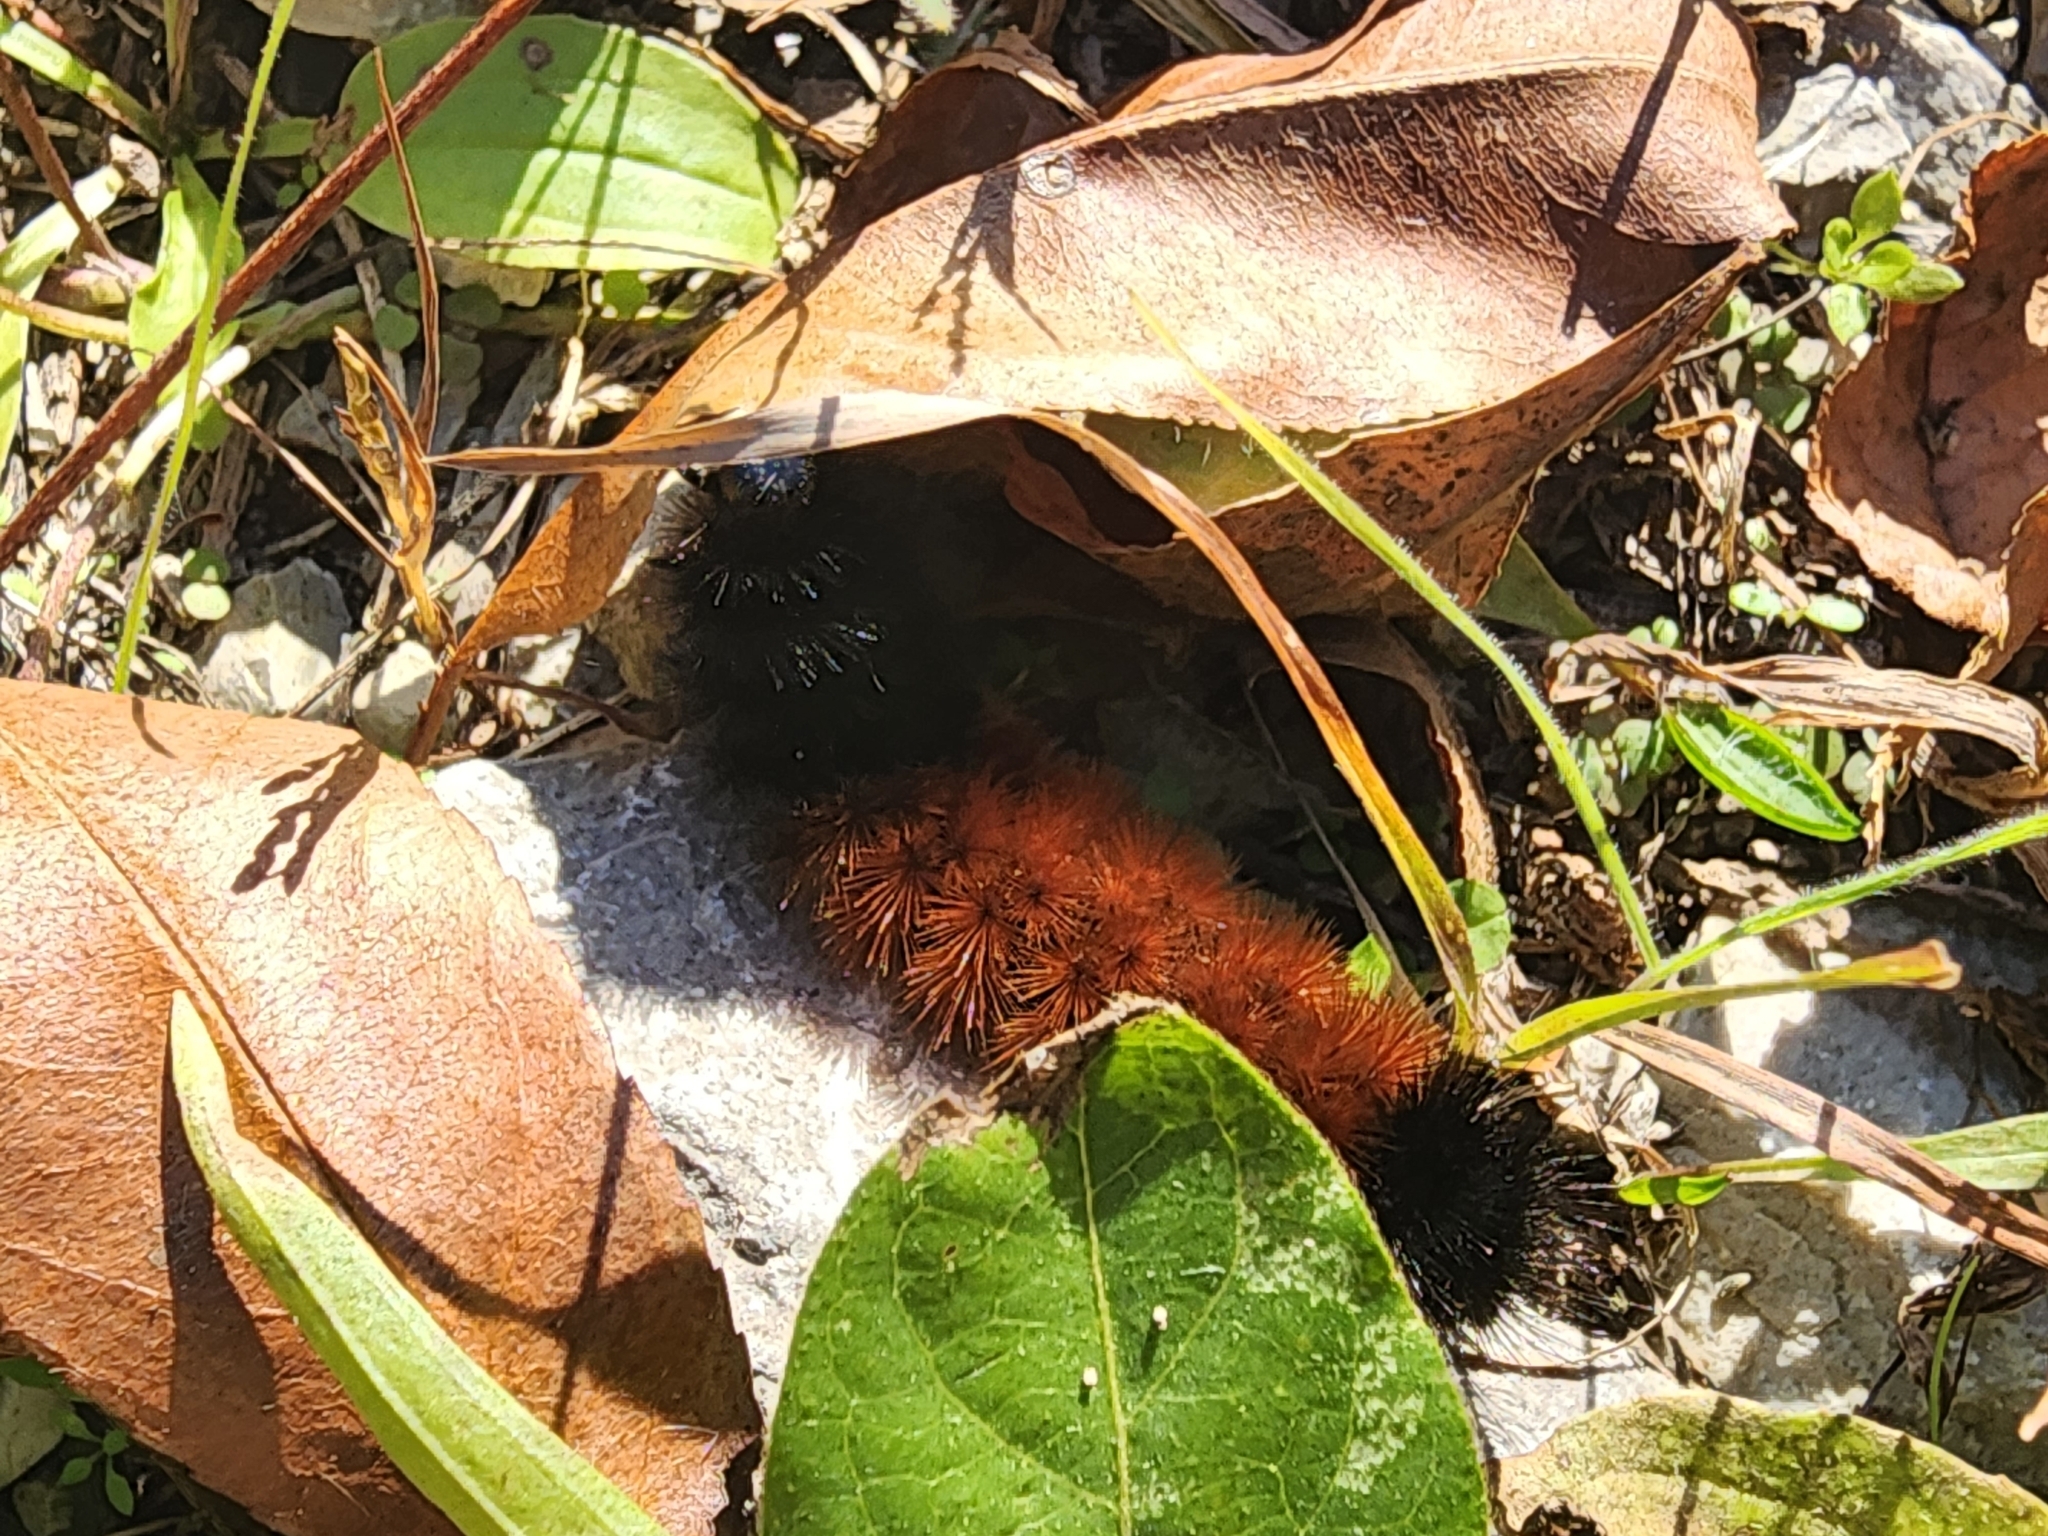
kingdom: Animalia
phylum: Arthropoda
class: Insecta
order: Lepidoptera
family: Erebidae
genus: Pyrrharctia
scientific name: Pyrrharctia isabella
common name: Isabella tiger moth
